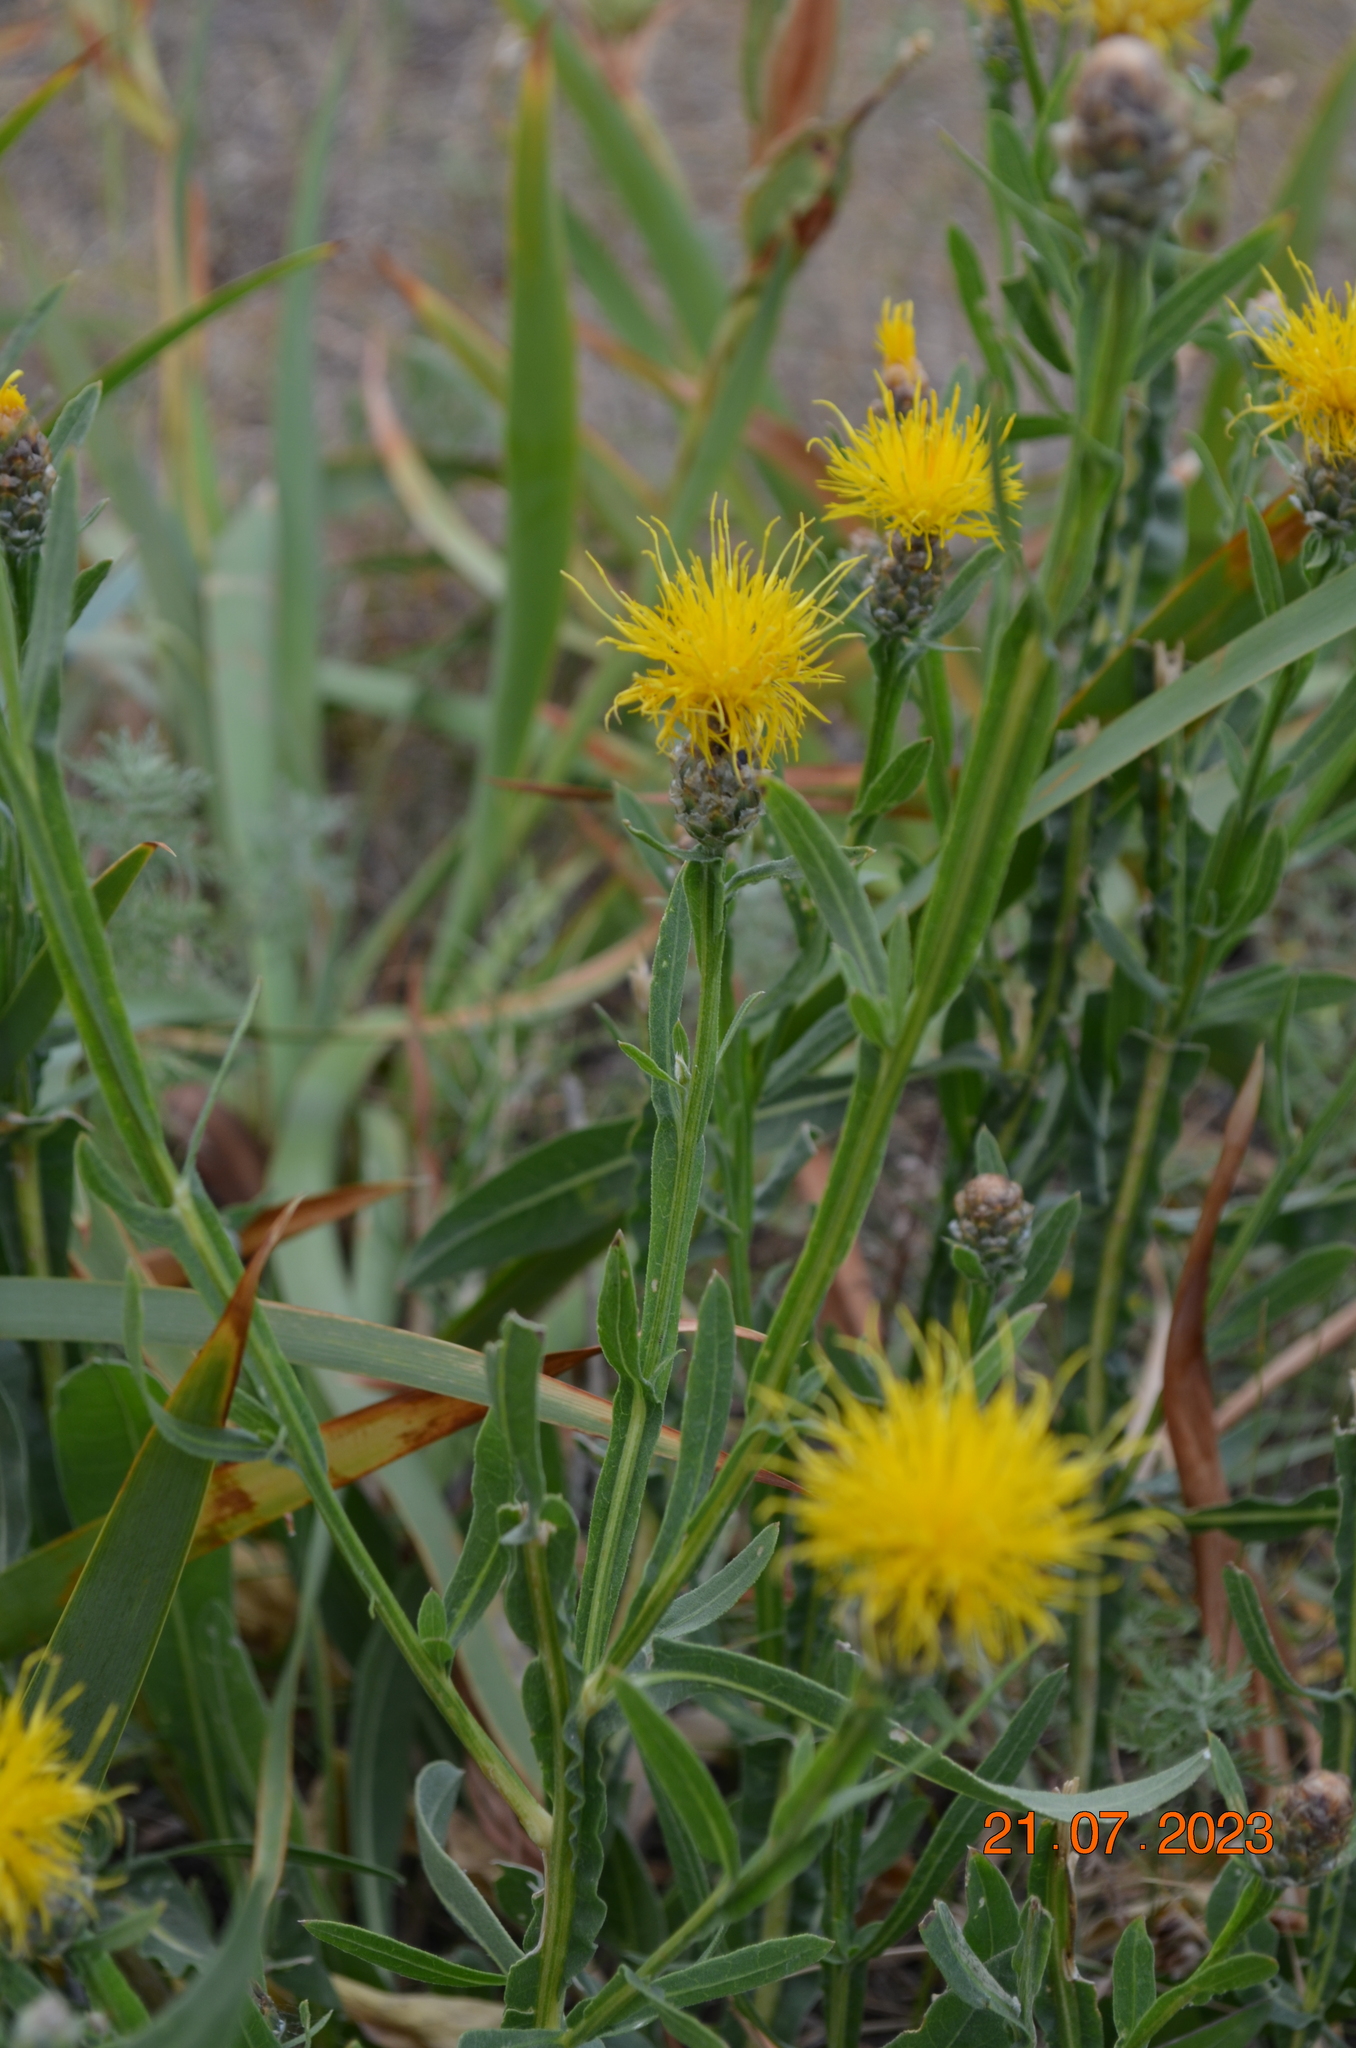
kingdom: Plantae
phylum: Tracheophyta
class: Magnoliopsida
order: Asterales
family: Asteraceae
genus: Centaurea
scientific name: Centaurea glastifolia
